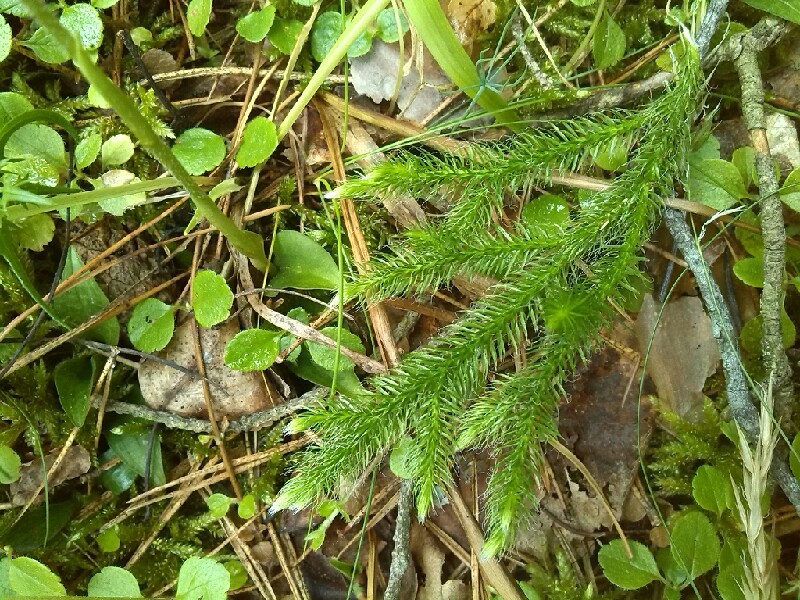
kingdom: Plantae
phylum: Tracheophyta
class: Lycopodiopsida
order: Lycopodiales
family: Lycopodiaceae
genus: Lycopodium
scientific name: Lycopodium clavatum
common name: Stag's-horn clubmoss
